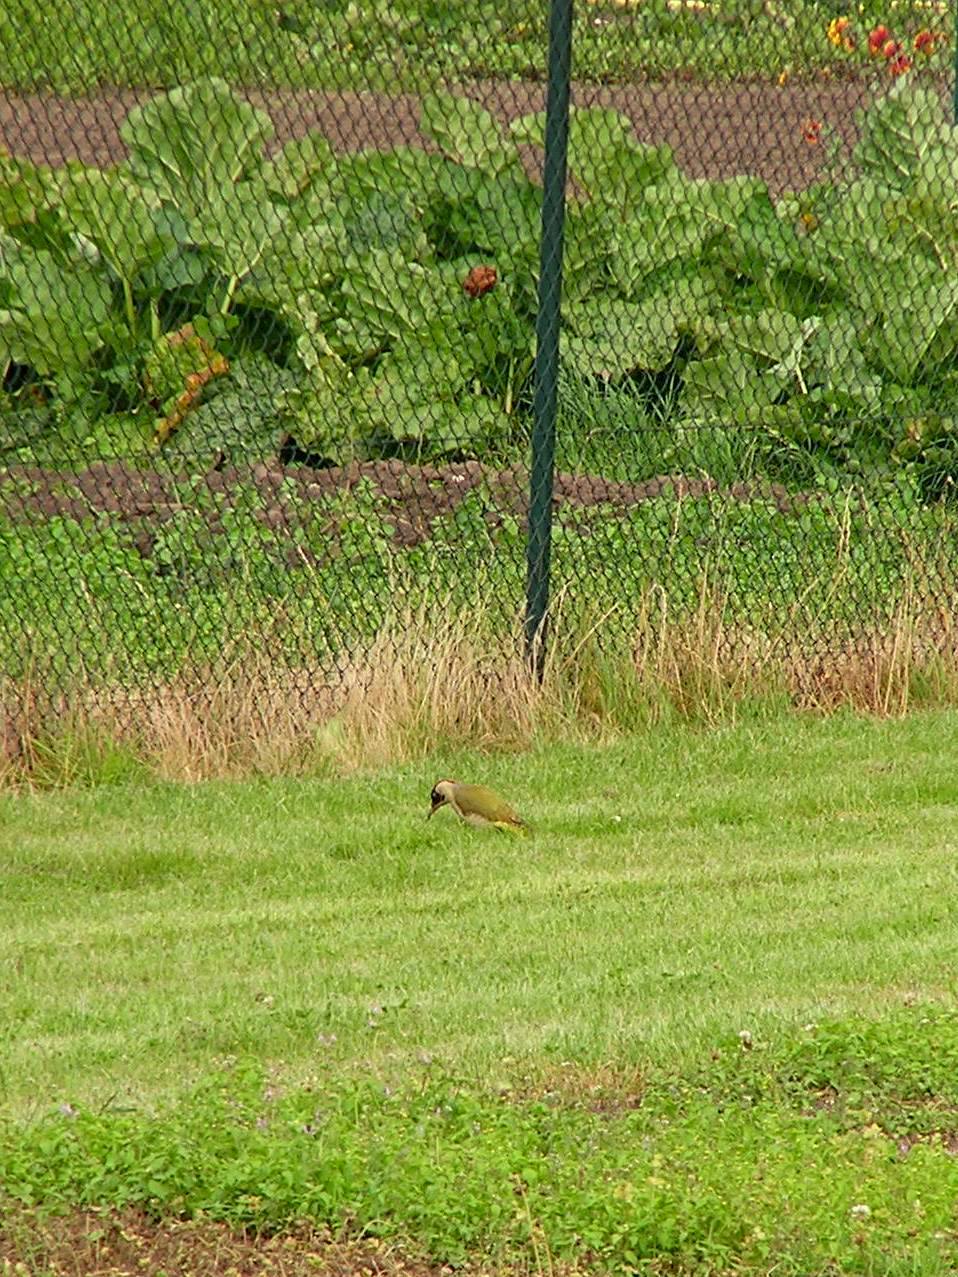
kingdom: Animalia
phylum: Chordata
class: Aves
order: Piciformes
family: Picidae
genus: Picus
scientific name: Picus viridis
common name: European green woodpecker
